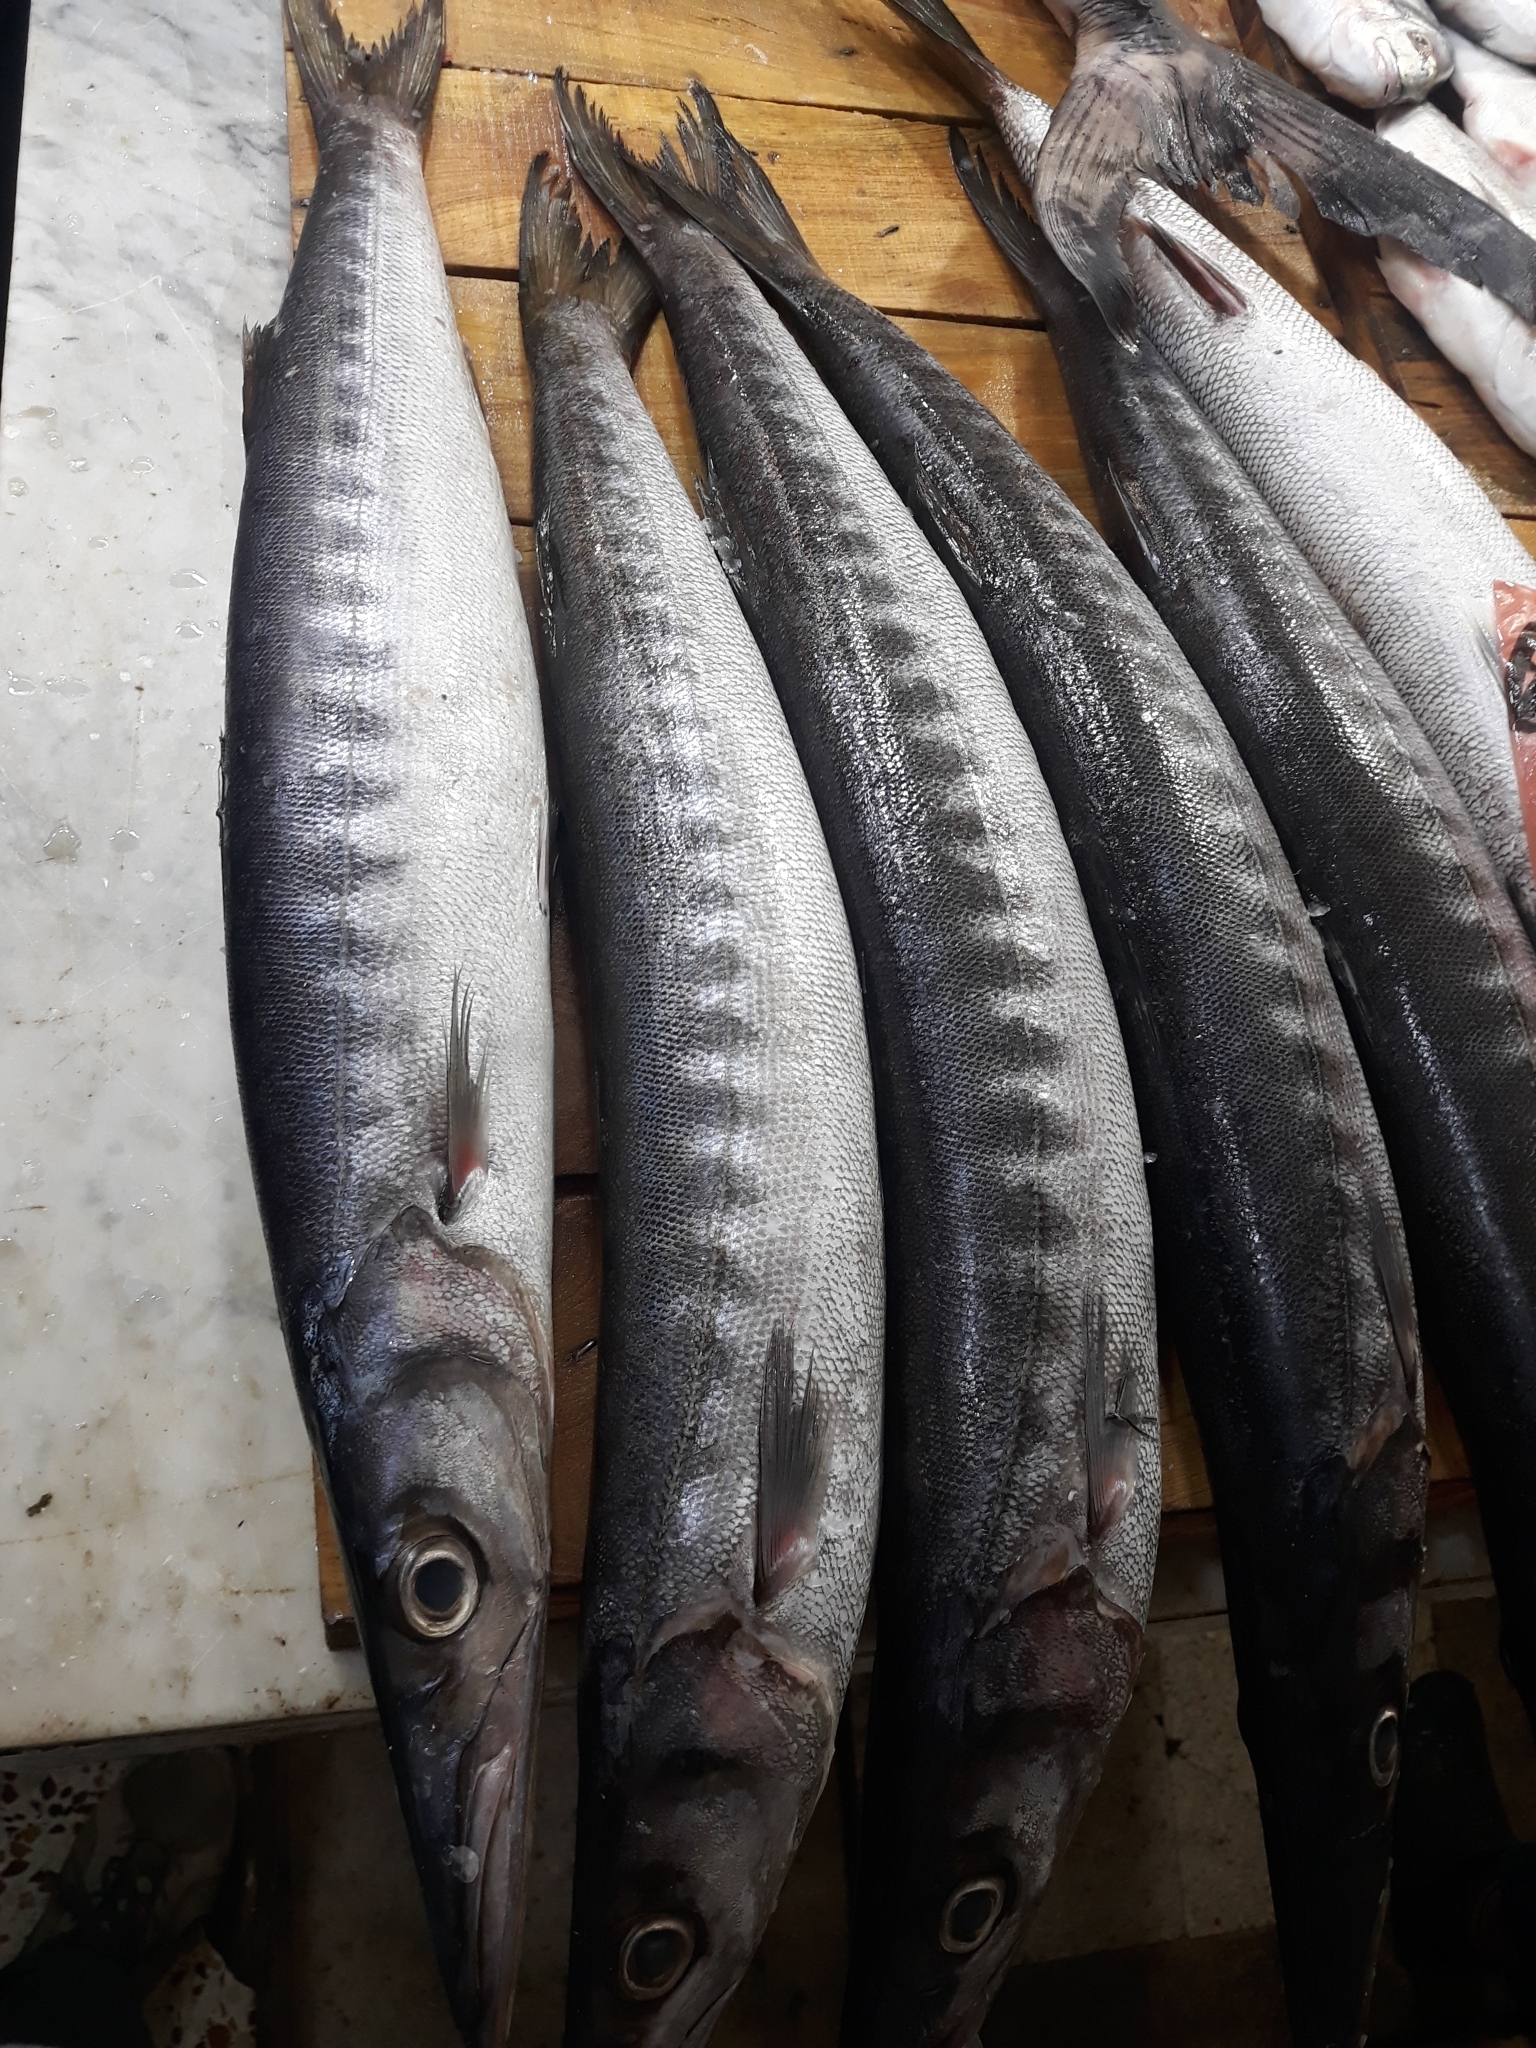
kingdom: Animalia
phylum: Chordata
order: Perciformes
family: Sphyraenidae
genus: Sphyraena
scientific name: Sphyraena viridensis
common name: Yellowmouth barracuda
